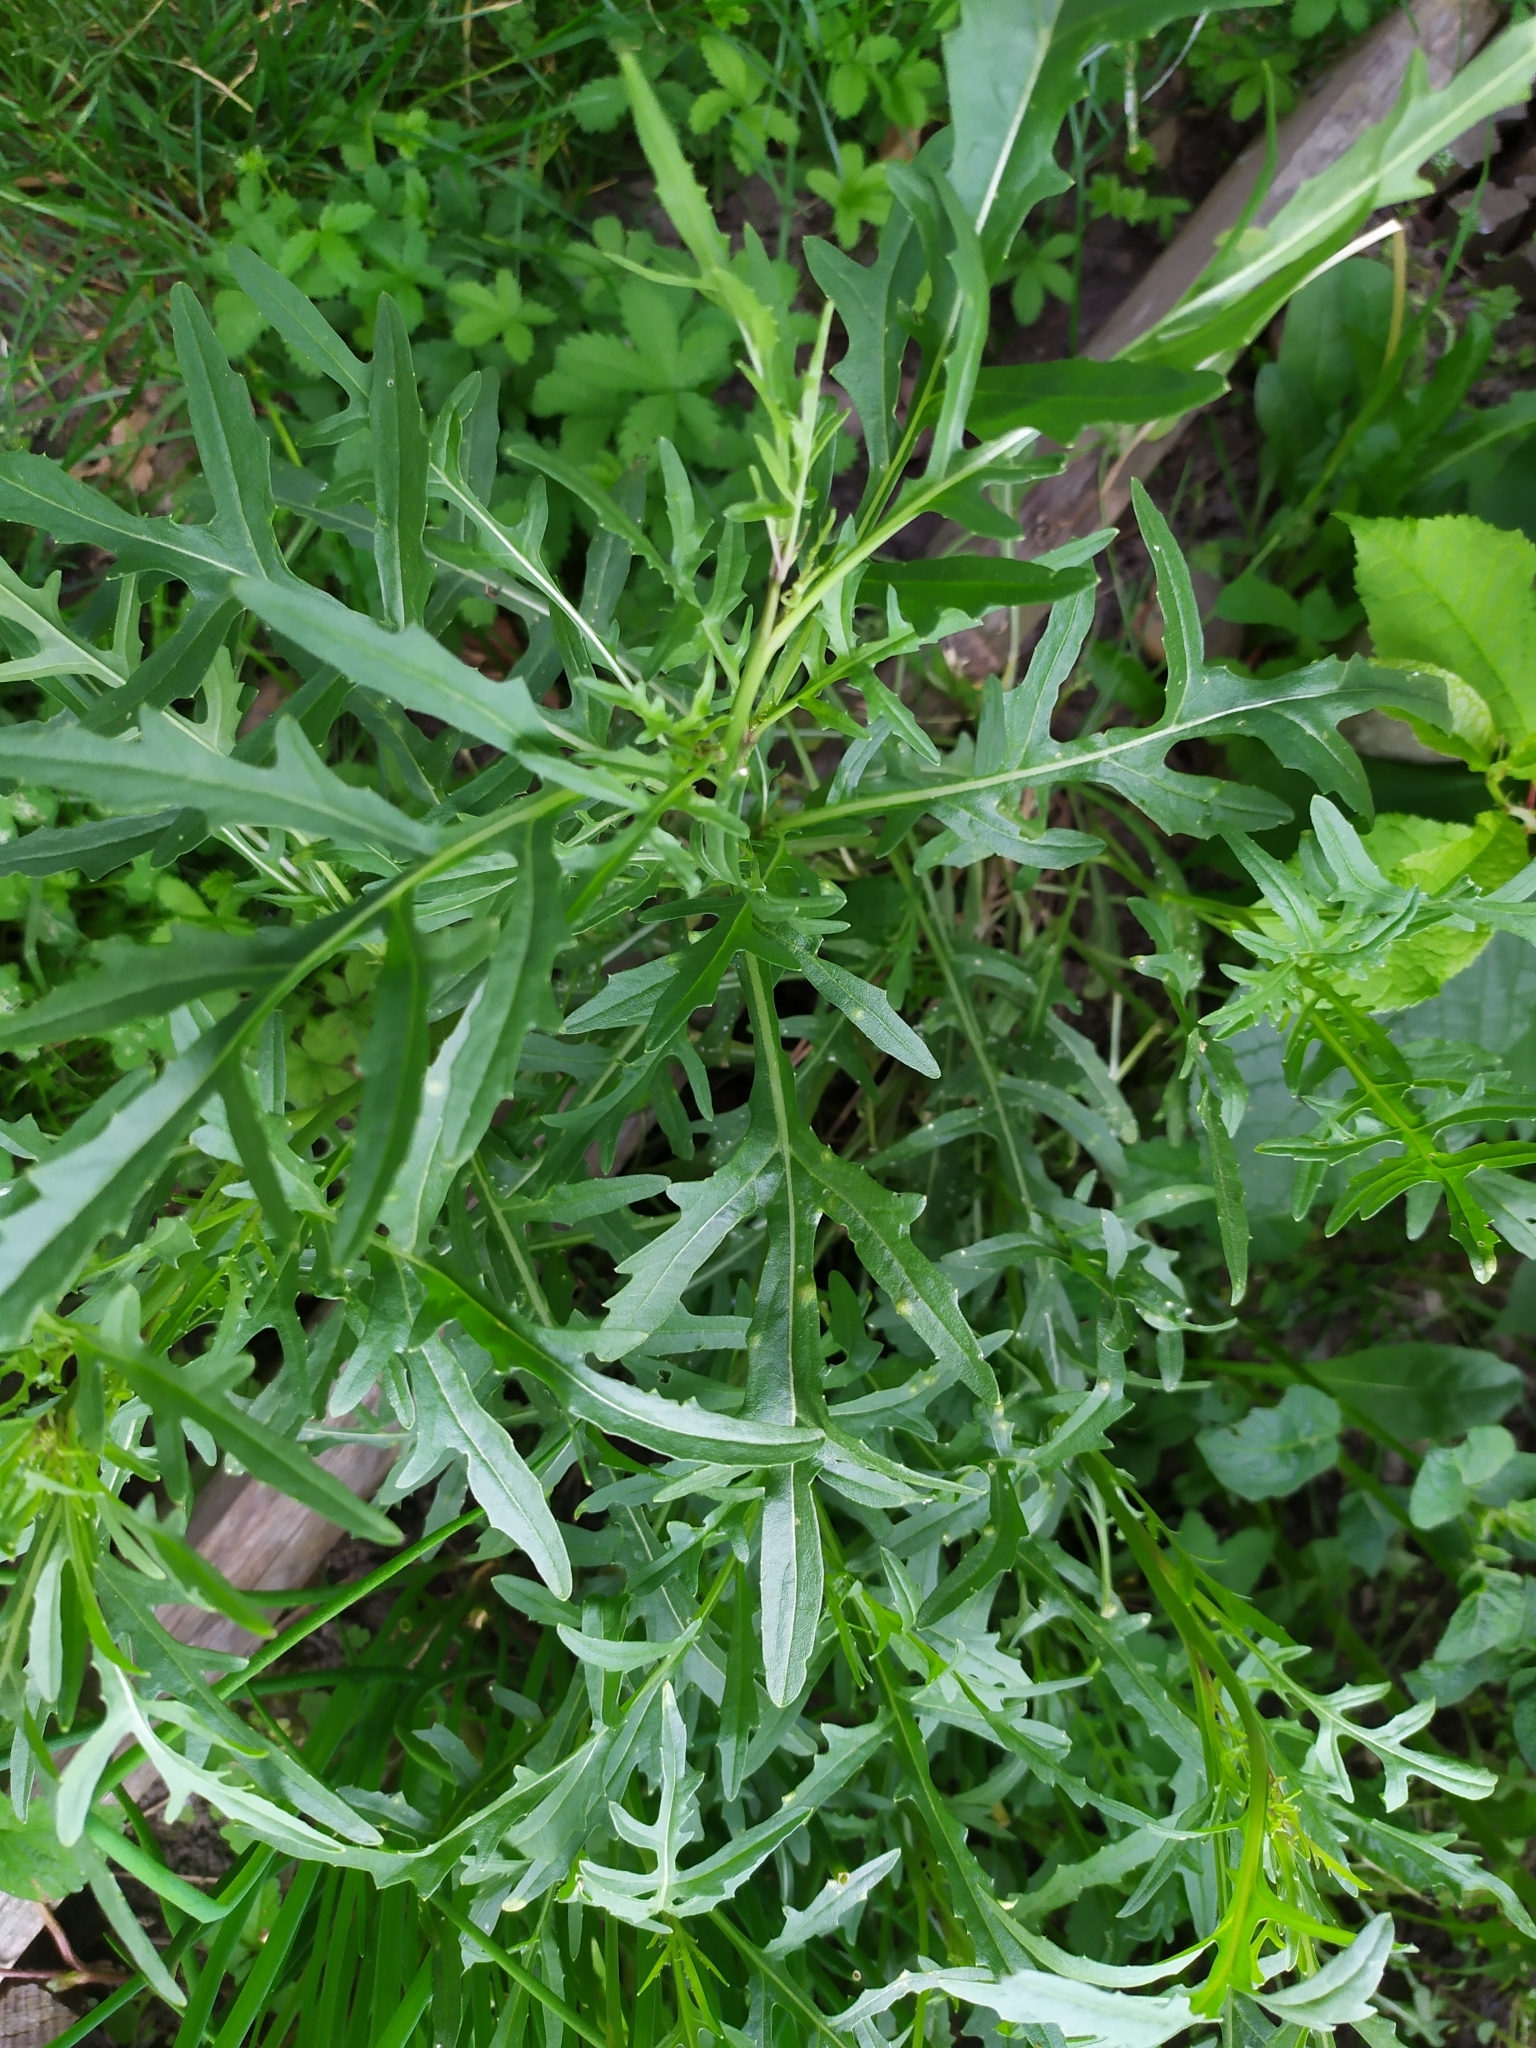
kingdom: Plantae
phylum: Tracheophyta
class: Magnoliopsida
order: Brassicales
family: Brassicaceae
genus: Diplotaxis
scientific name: Diplotaxis tenuifolia
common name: Perennial wall-rocket
